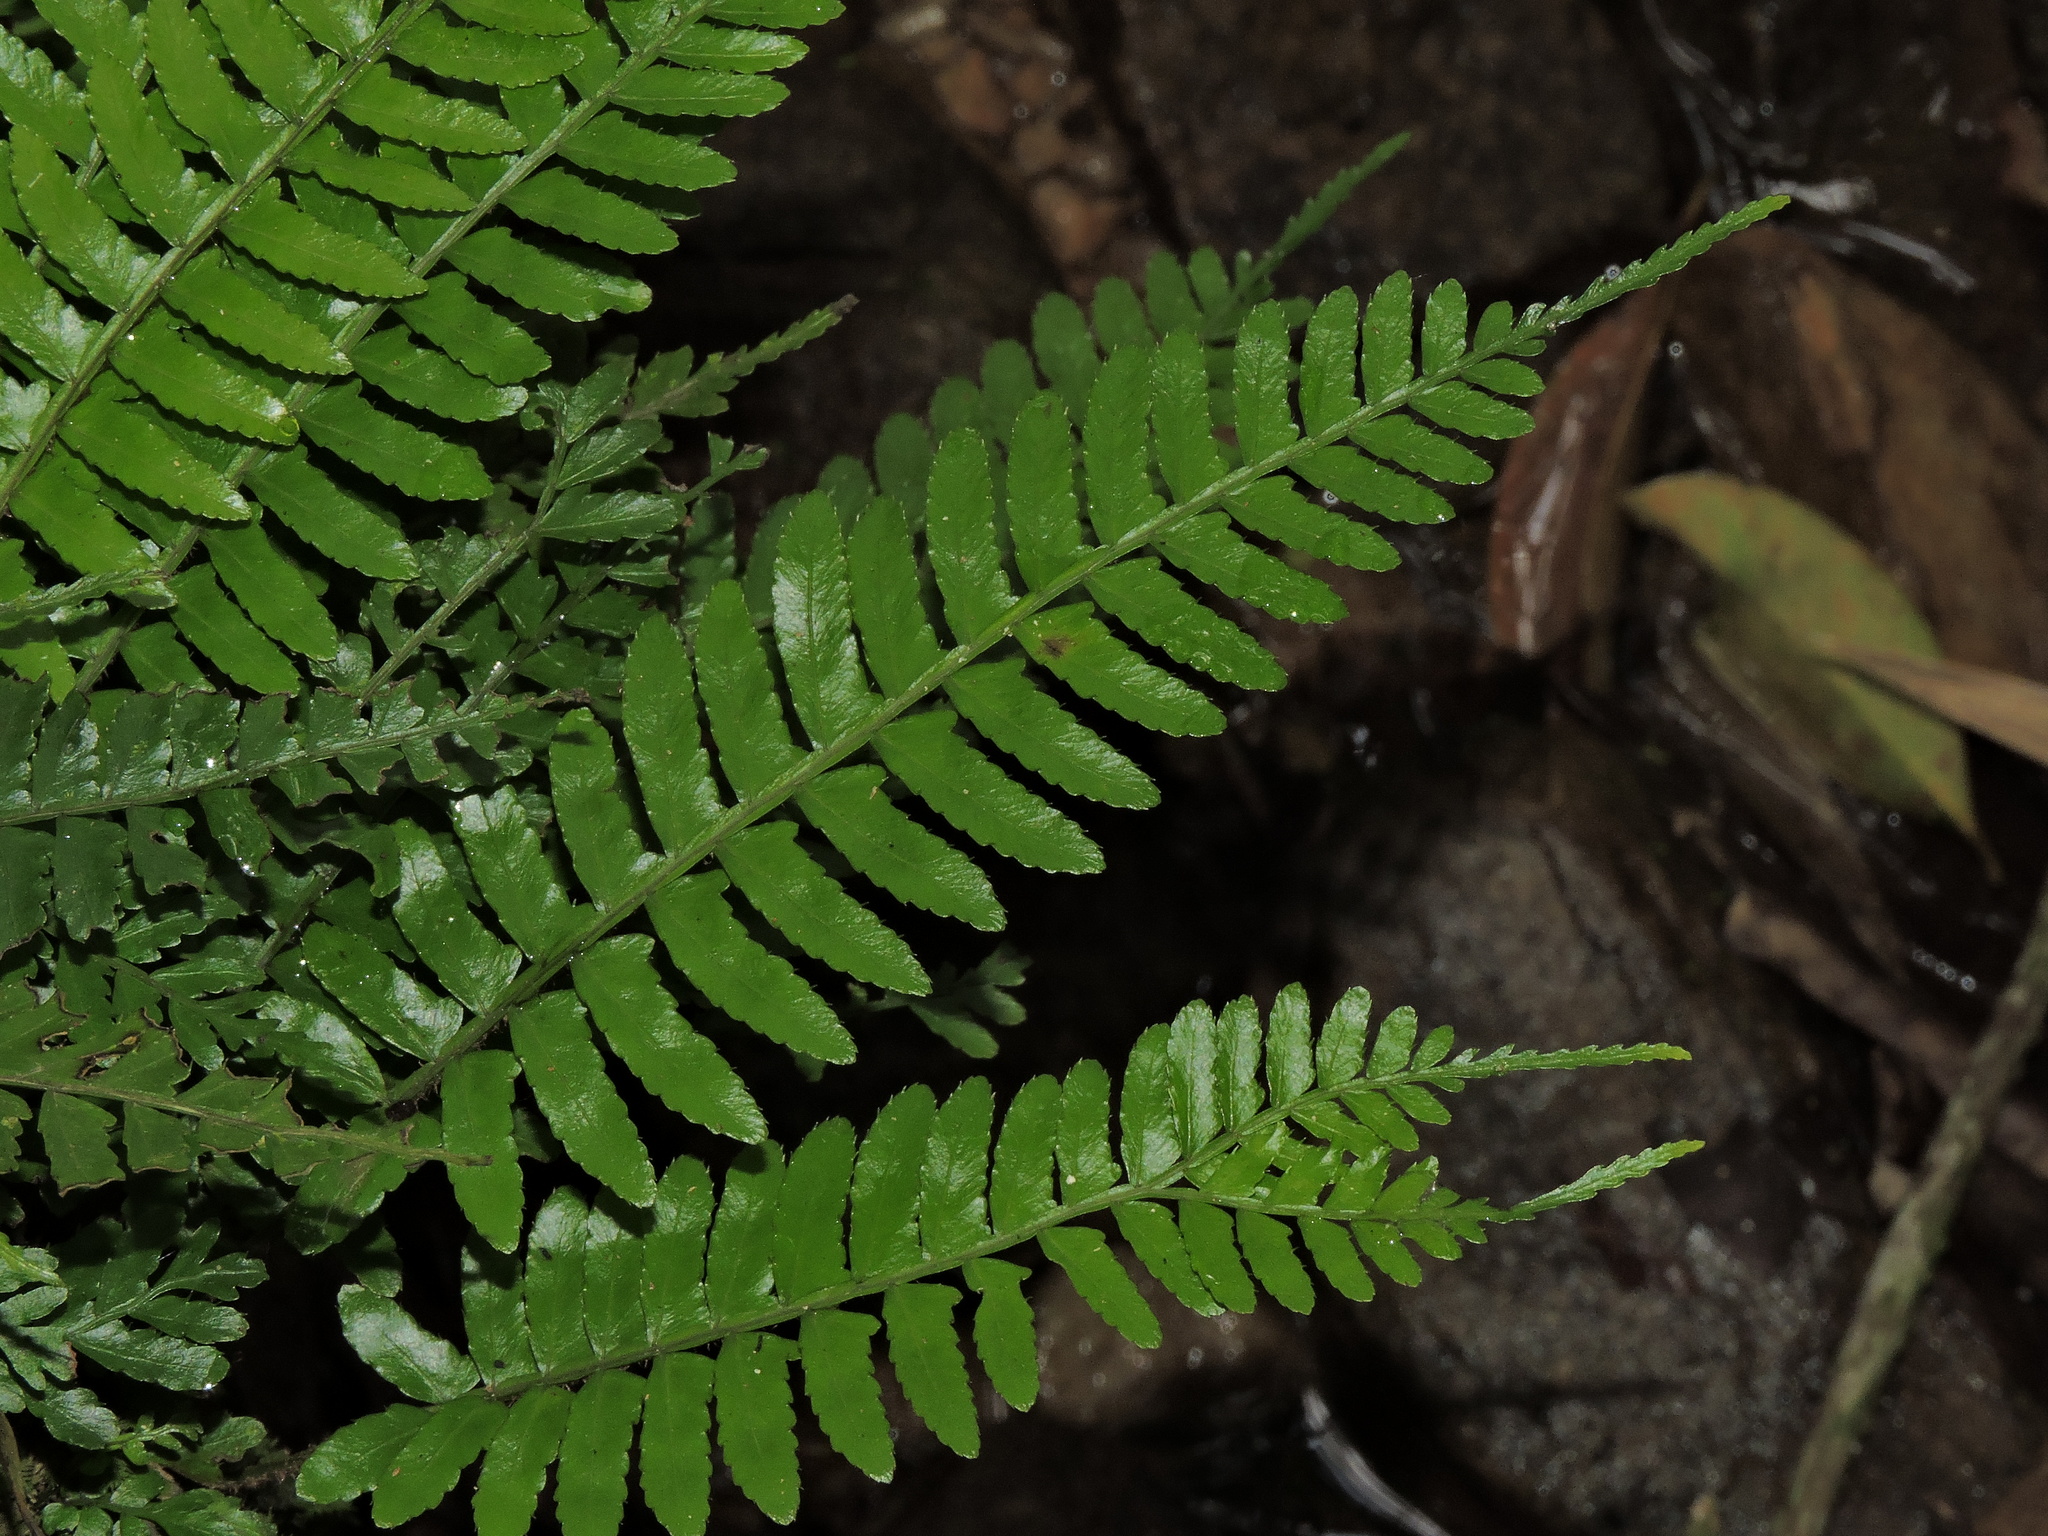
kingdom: Plantae
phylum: Tracheophyta
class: Polypodiopsida
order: Polypodiales
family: Dryopteridaceae
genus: Bolbitis
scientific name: Bolbitis appendiculata
